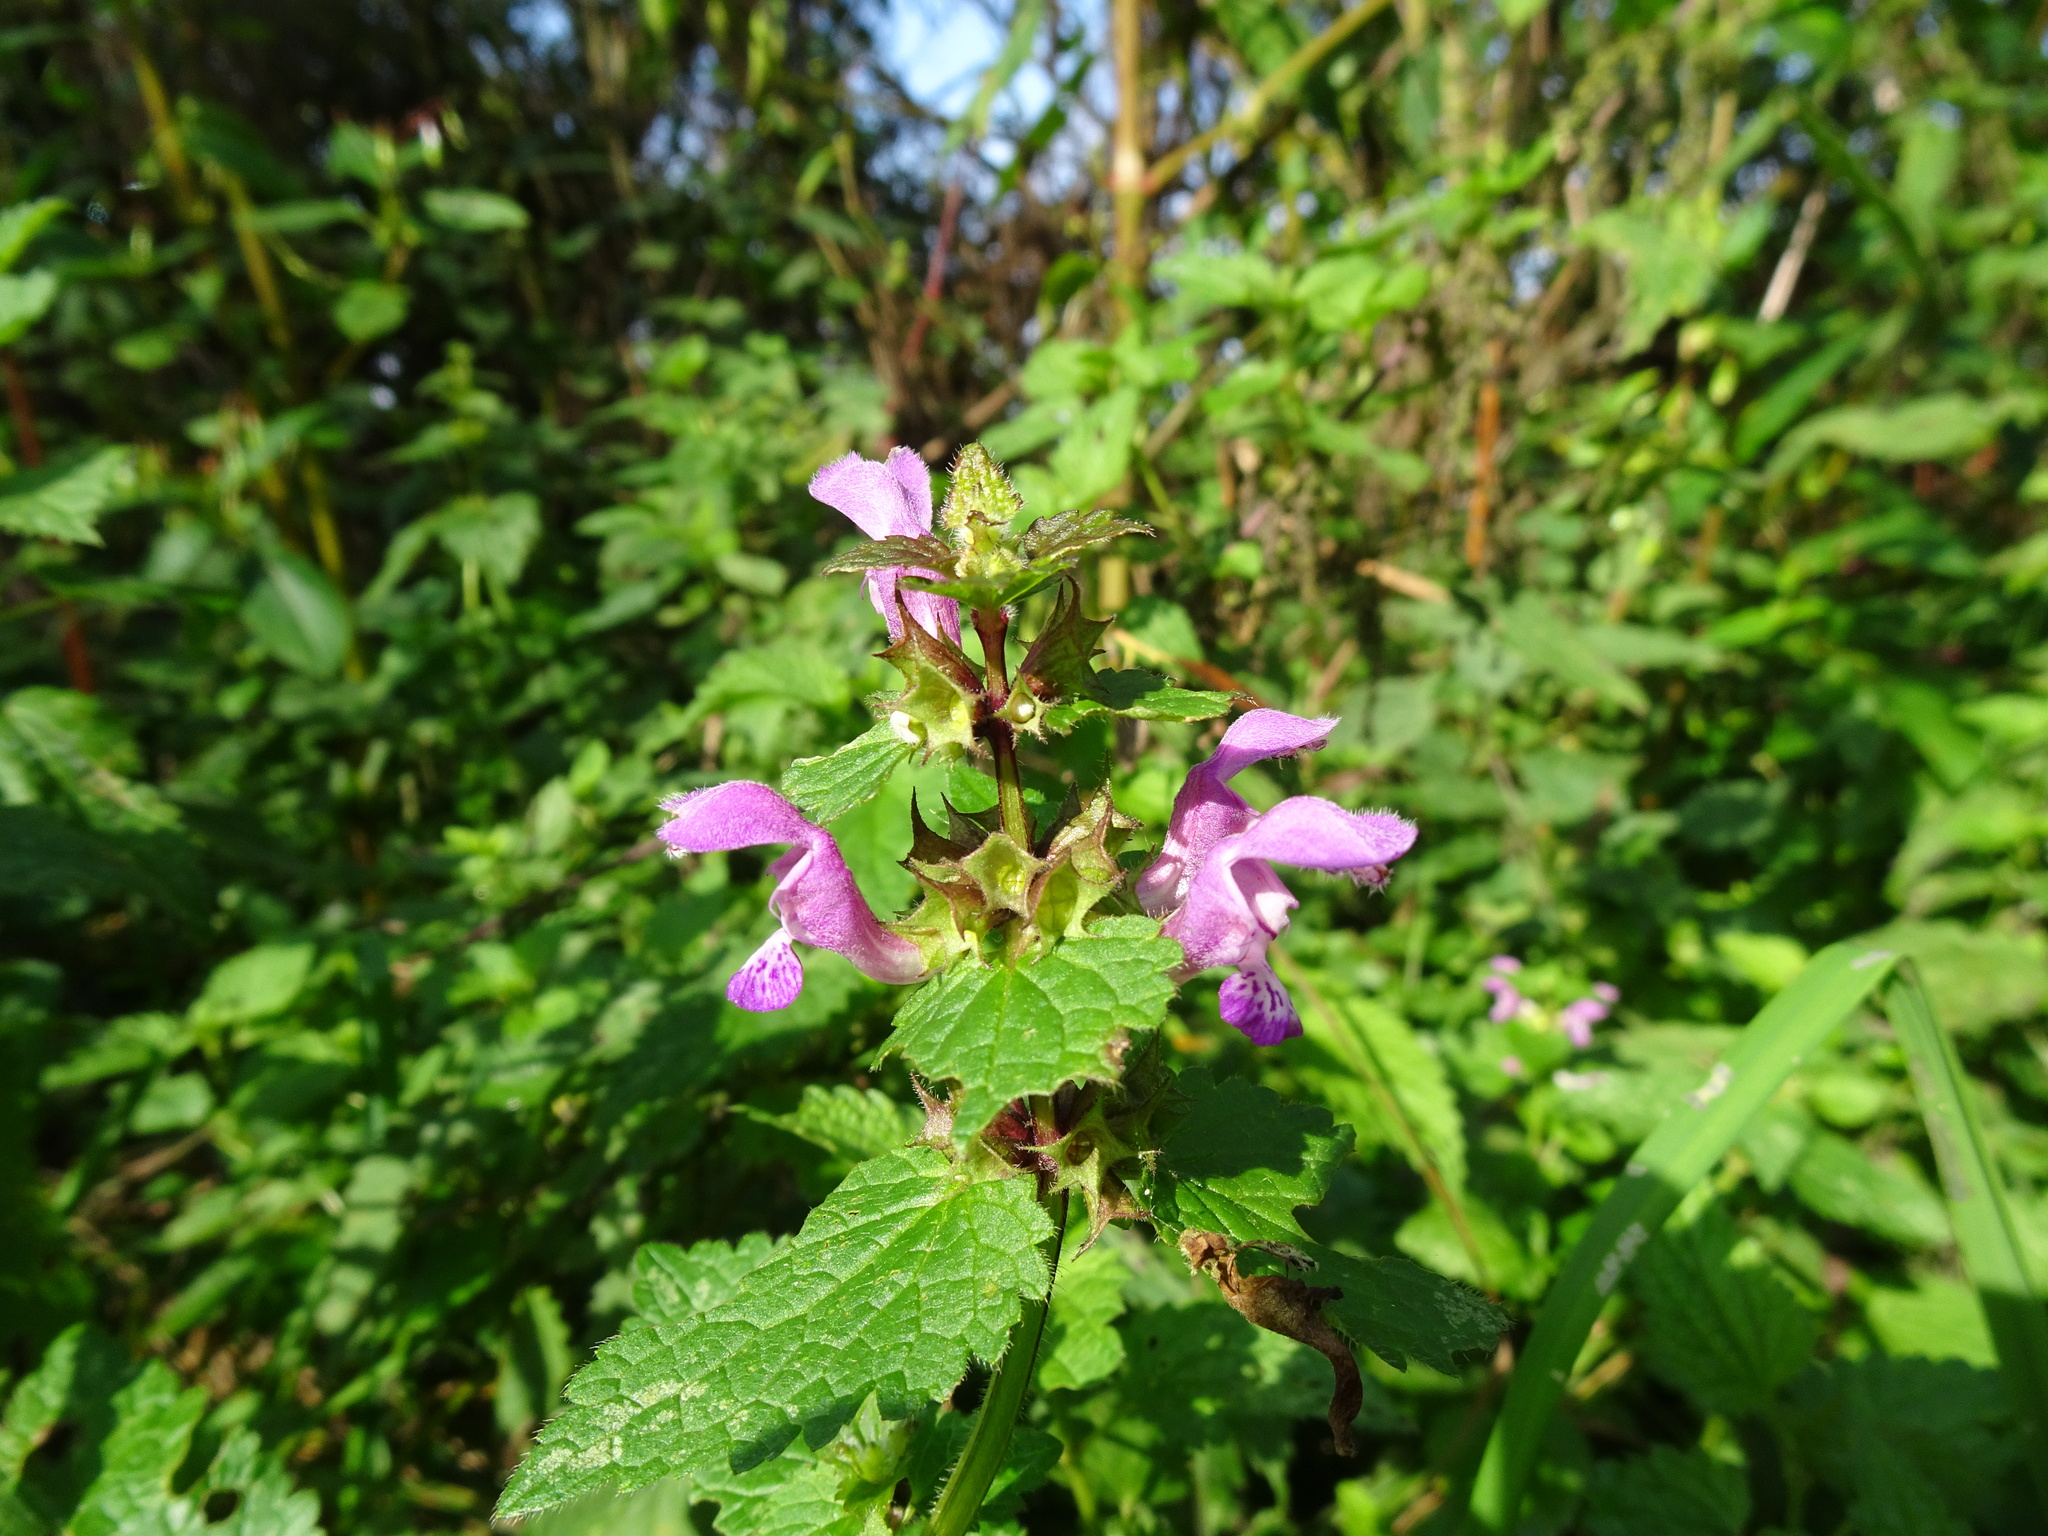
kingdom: Plantae
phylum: Tracheophyta
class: Magnoliopsida
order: Lamiales
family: Lamiaceae
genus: Lamium
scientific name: Lamium maculatum
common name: Spotted dead-nettle
